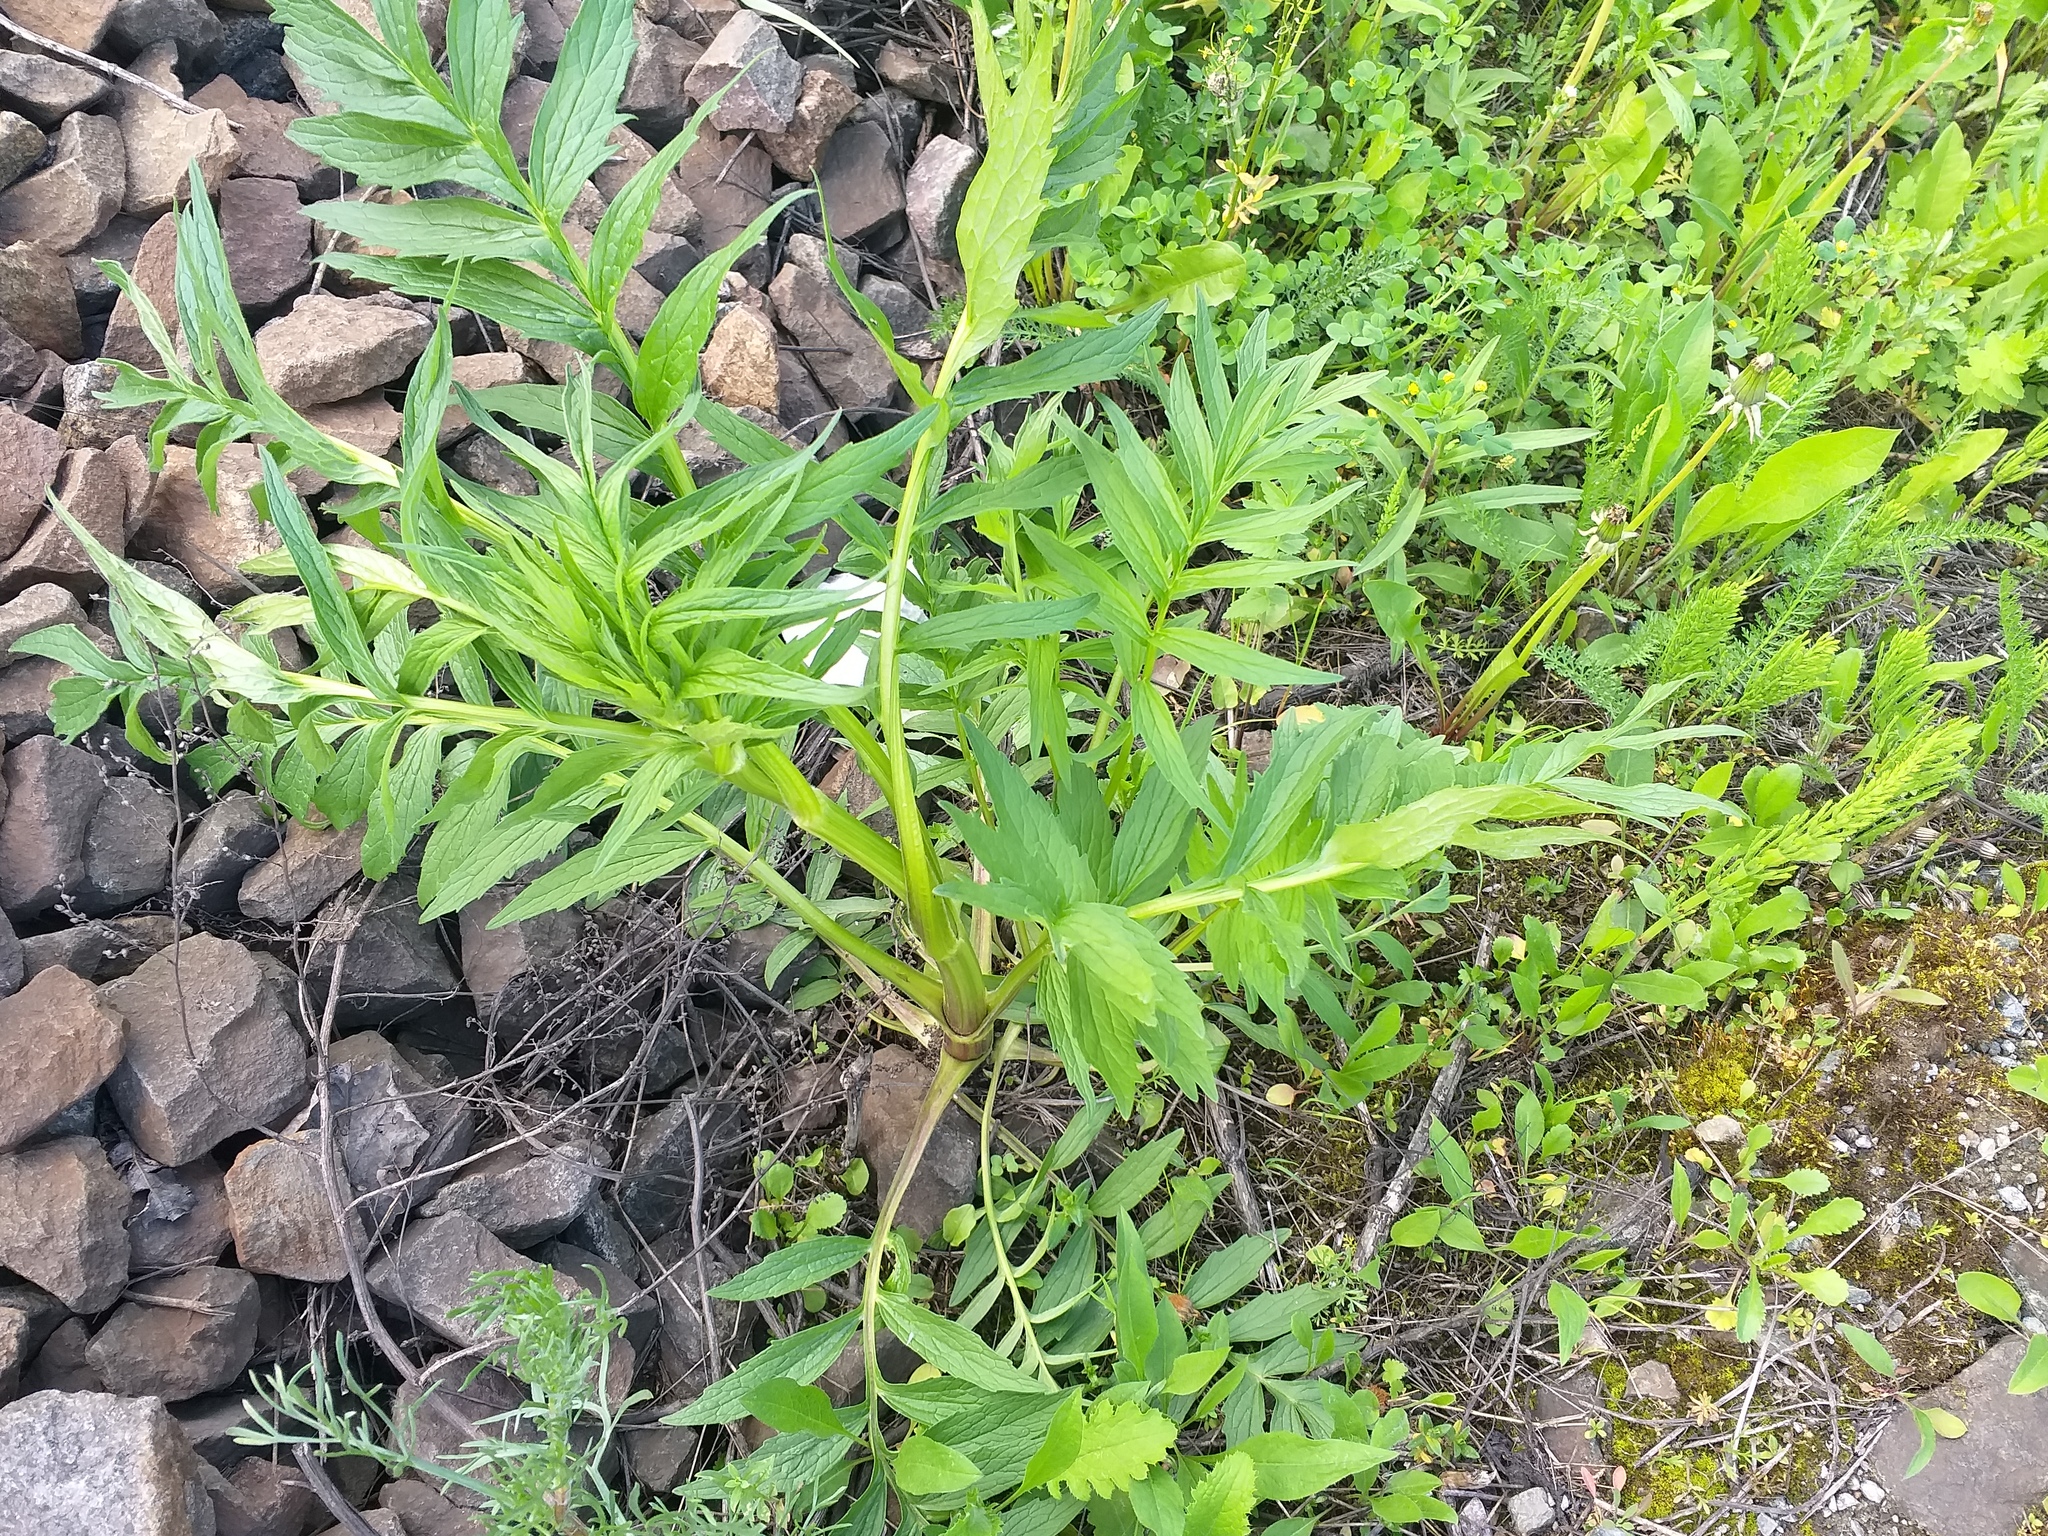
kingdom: Plantae
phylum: Tracheophyta
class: Magnoliopsida
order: Dipsacales
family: Caprifoliaceae
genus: Valeriana
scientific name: Valeriana officinalis
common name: Common valerian
